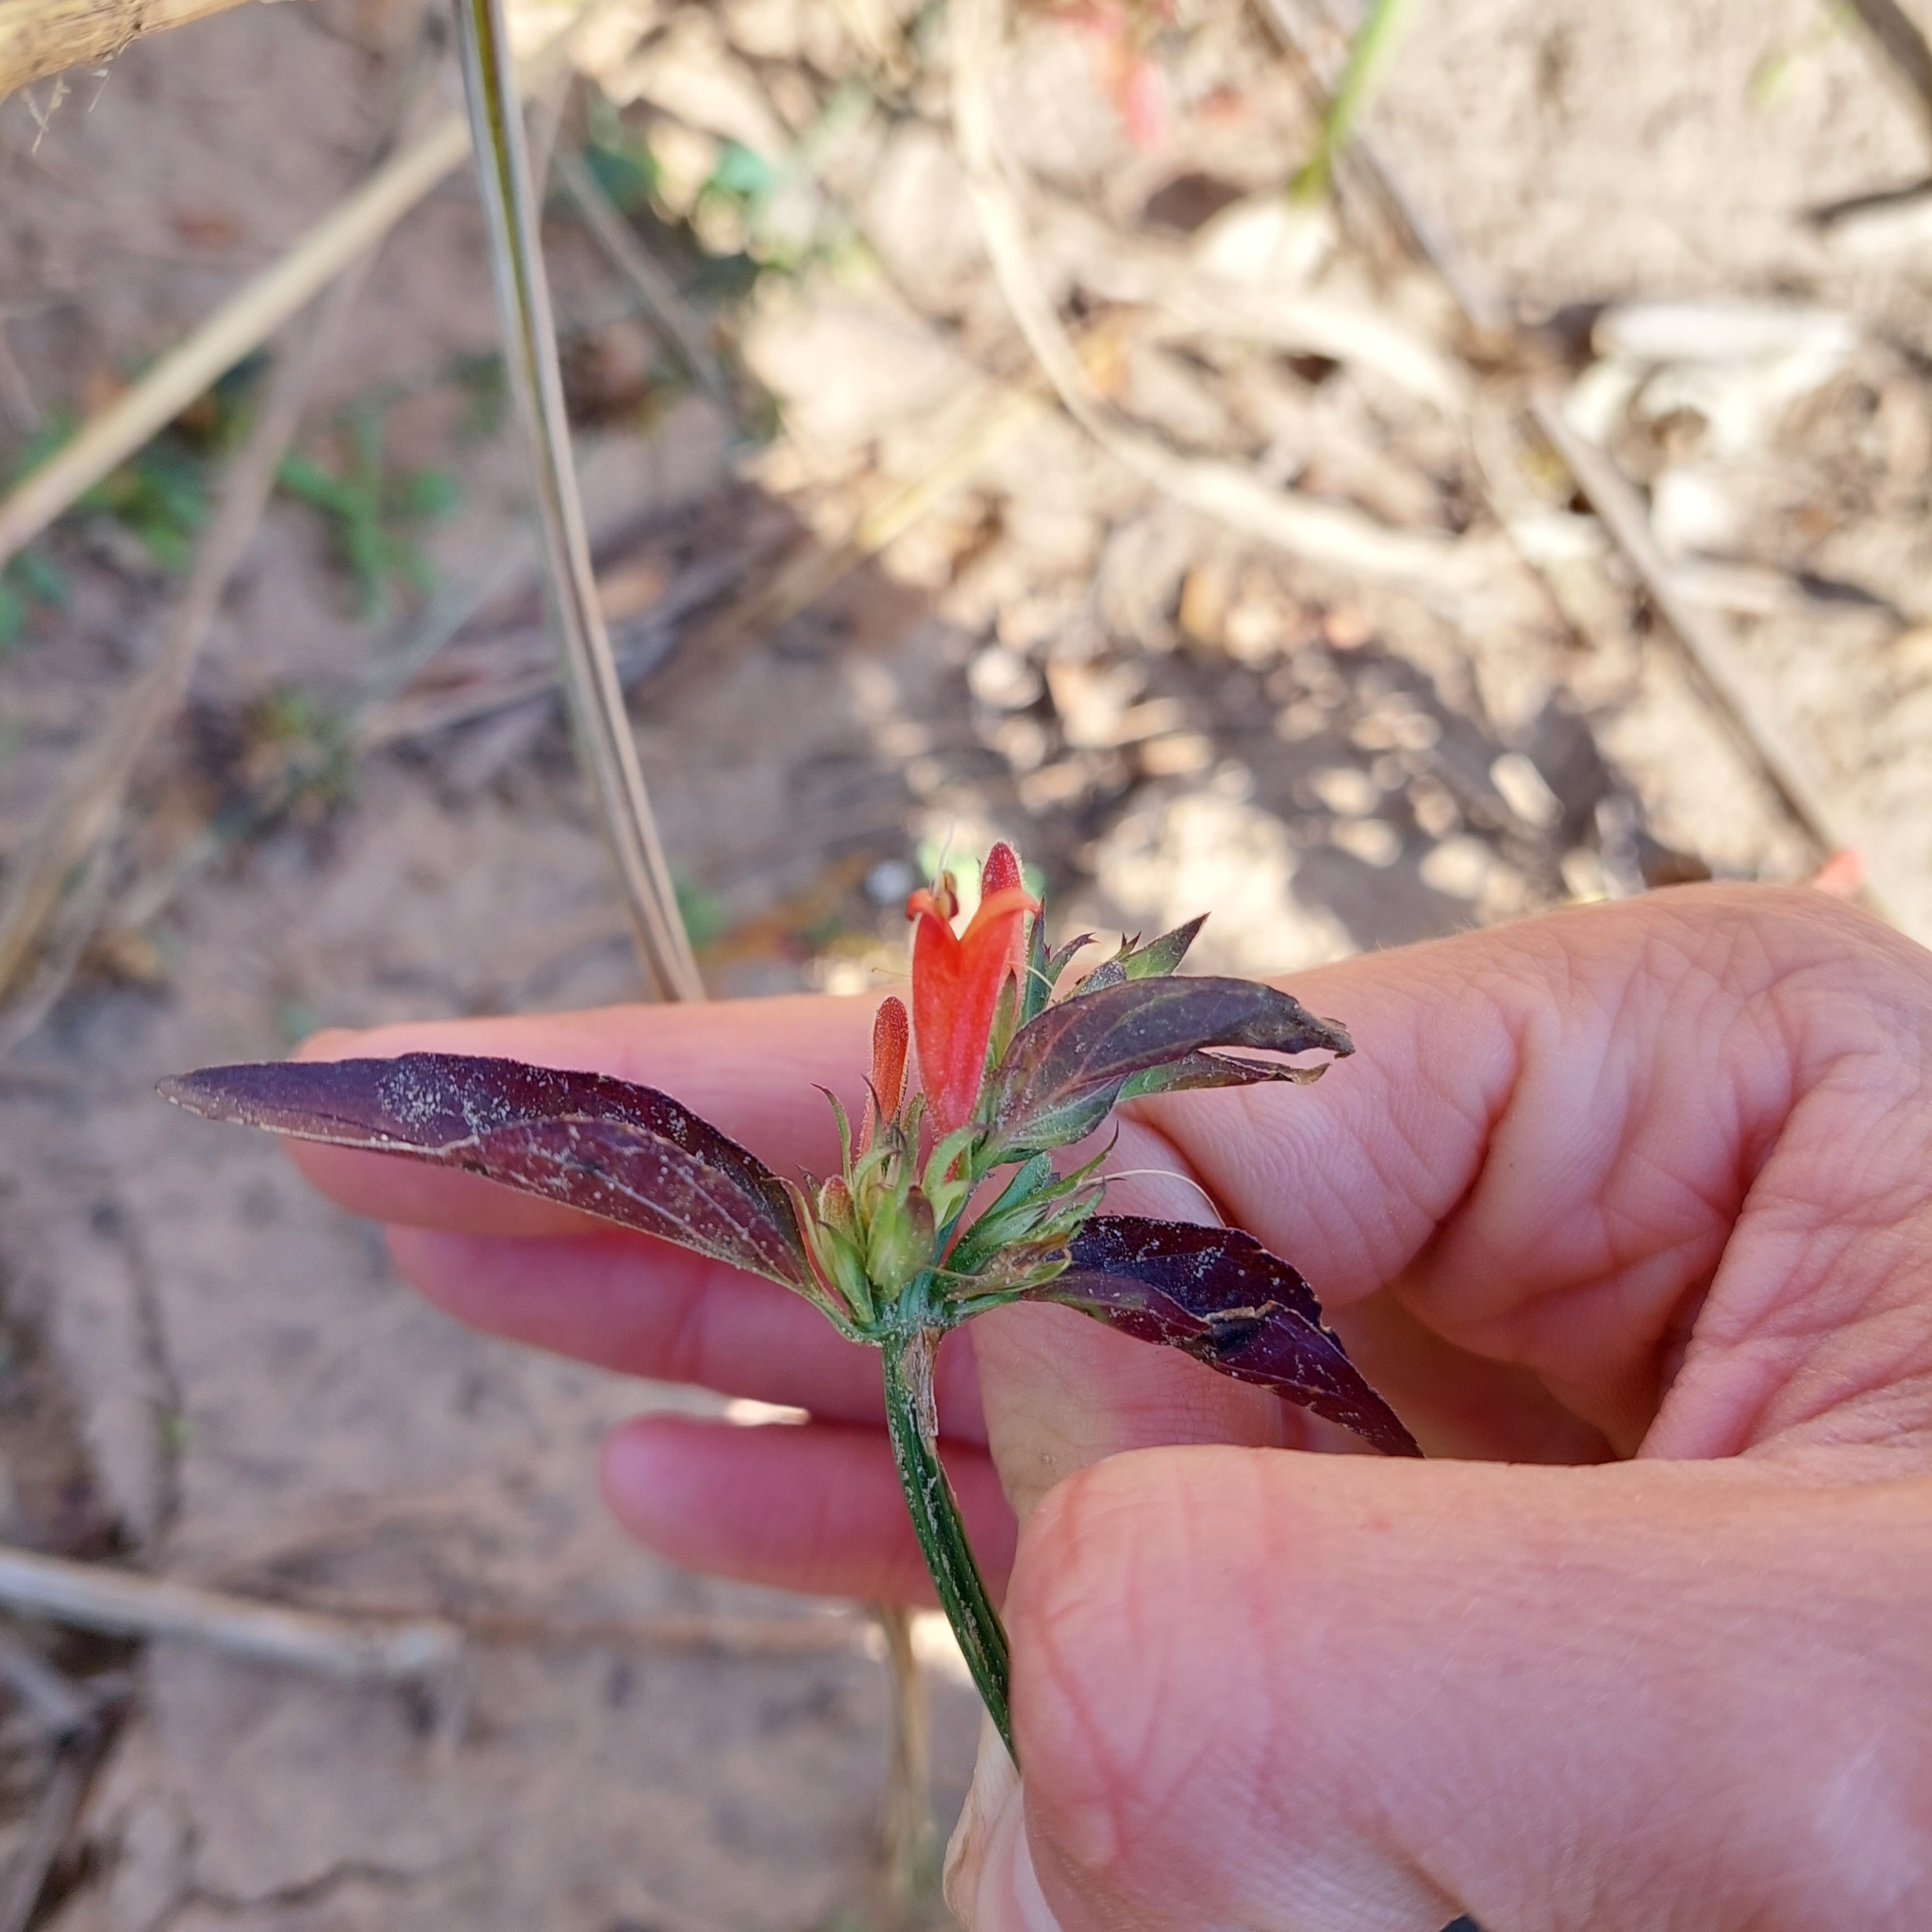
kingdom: Plantae
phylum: Tracheophyta
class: Magnoliopsida
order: Lamiales
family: Acanthaceae
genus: Dicliptera
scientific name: Dicliptera squarrosa
